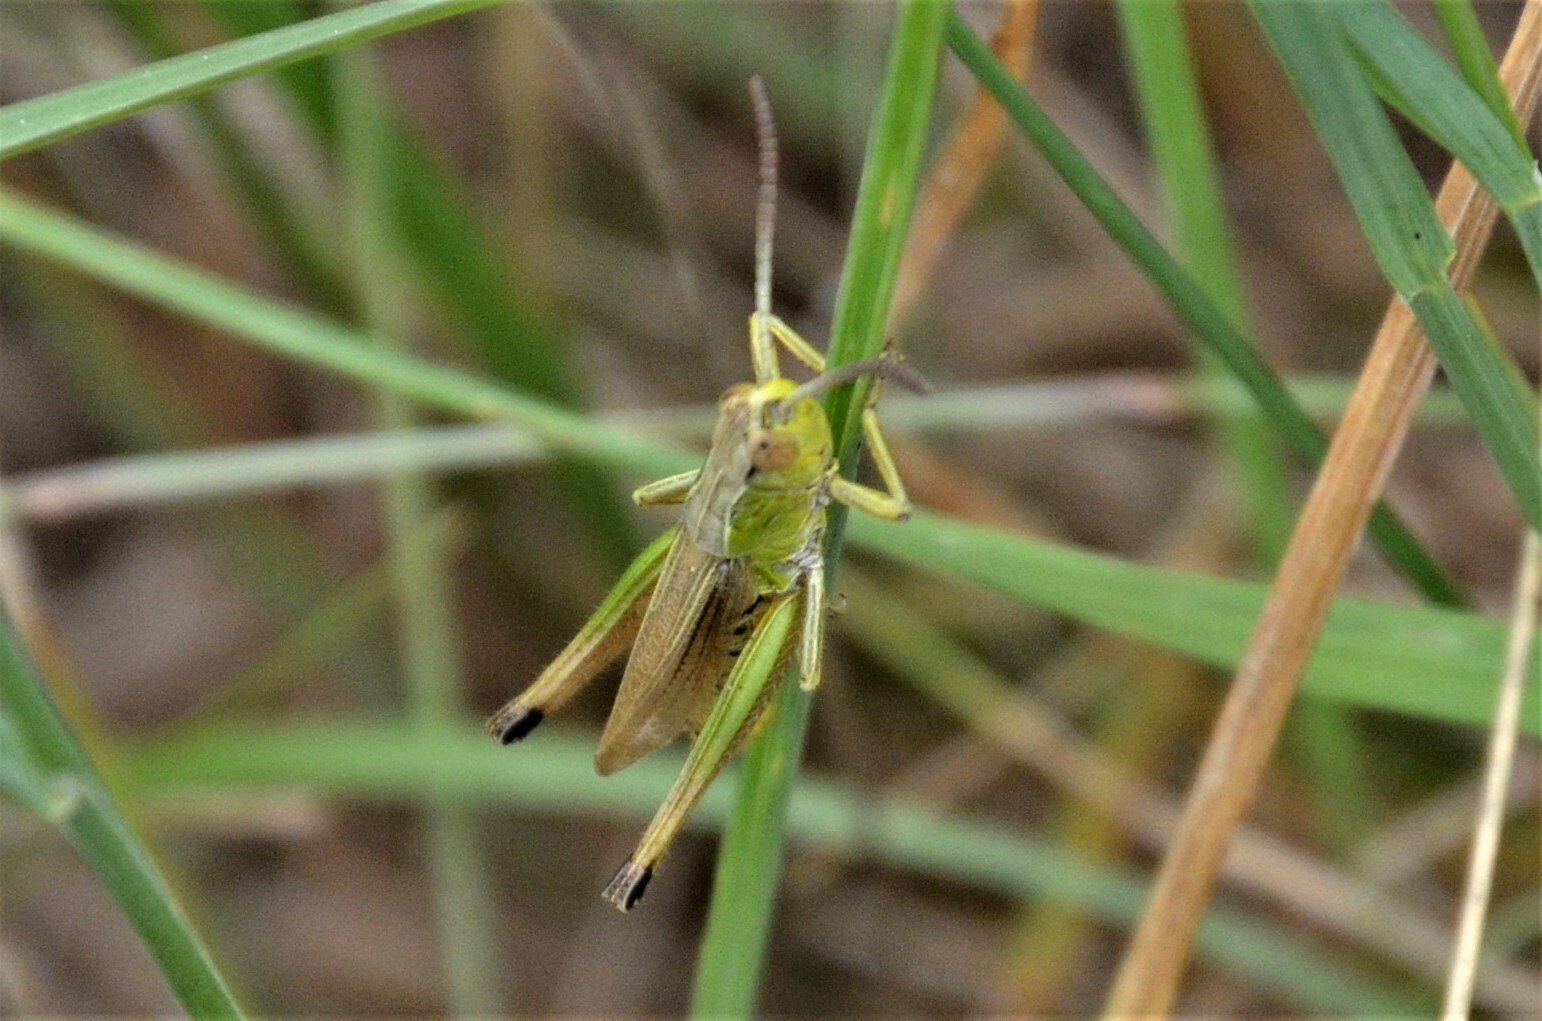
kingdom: Animalia
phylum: Arthropoda
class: Insecta
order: Orthoptera
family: Acrididae
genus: Pseudochorthippus
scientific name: Pseudochorthippus parallelus
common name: Meadow grasshopper
